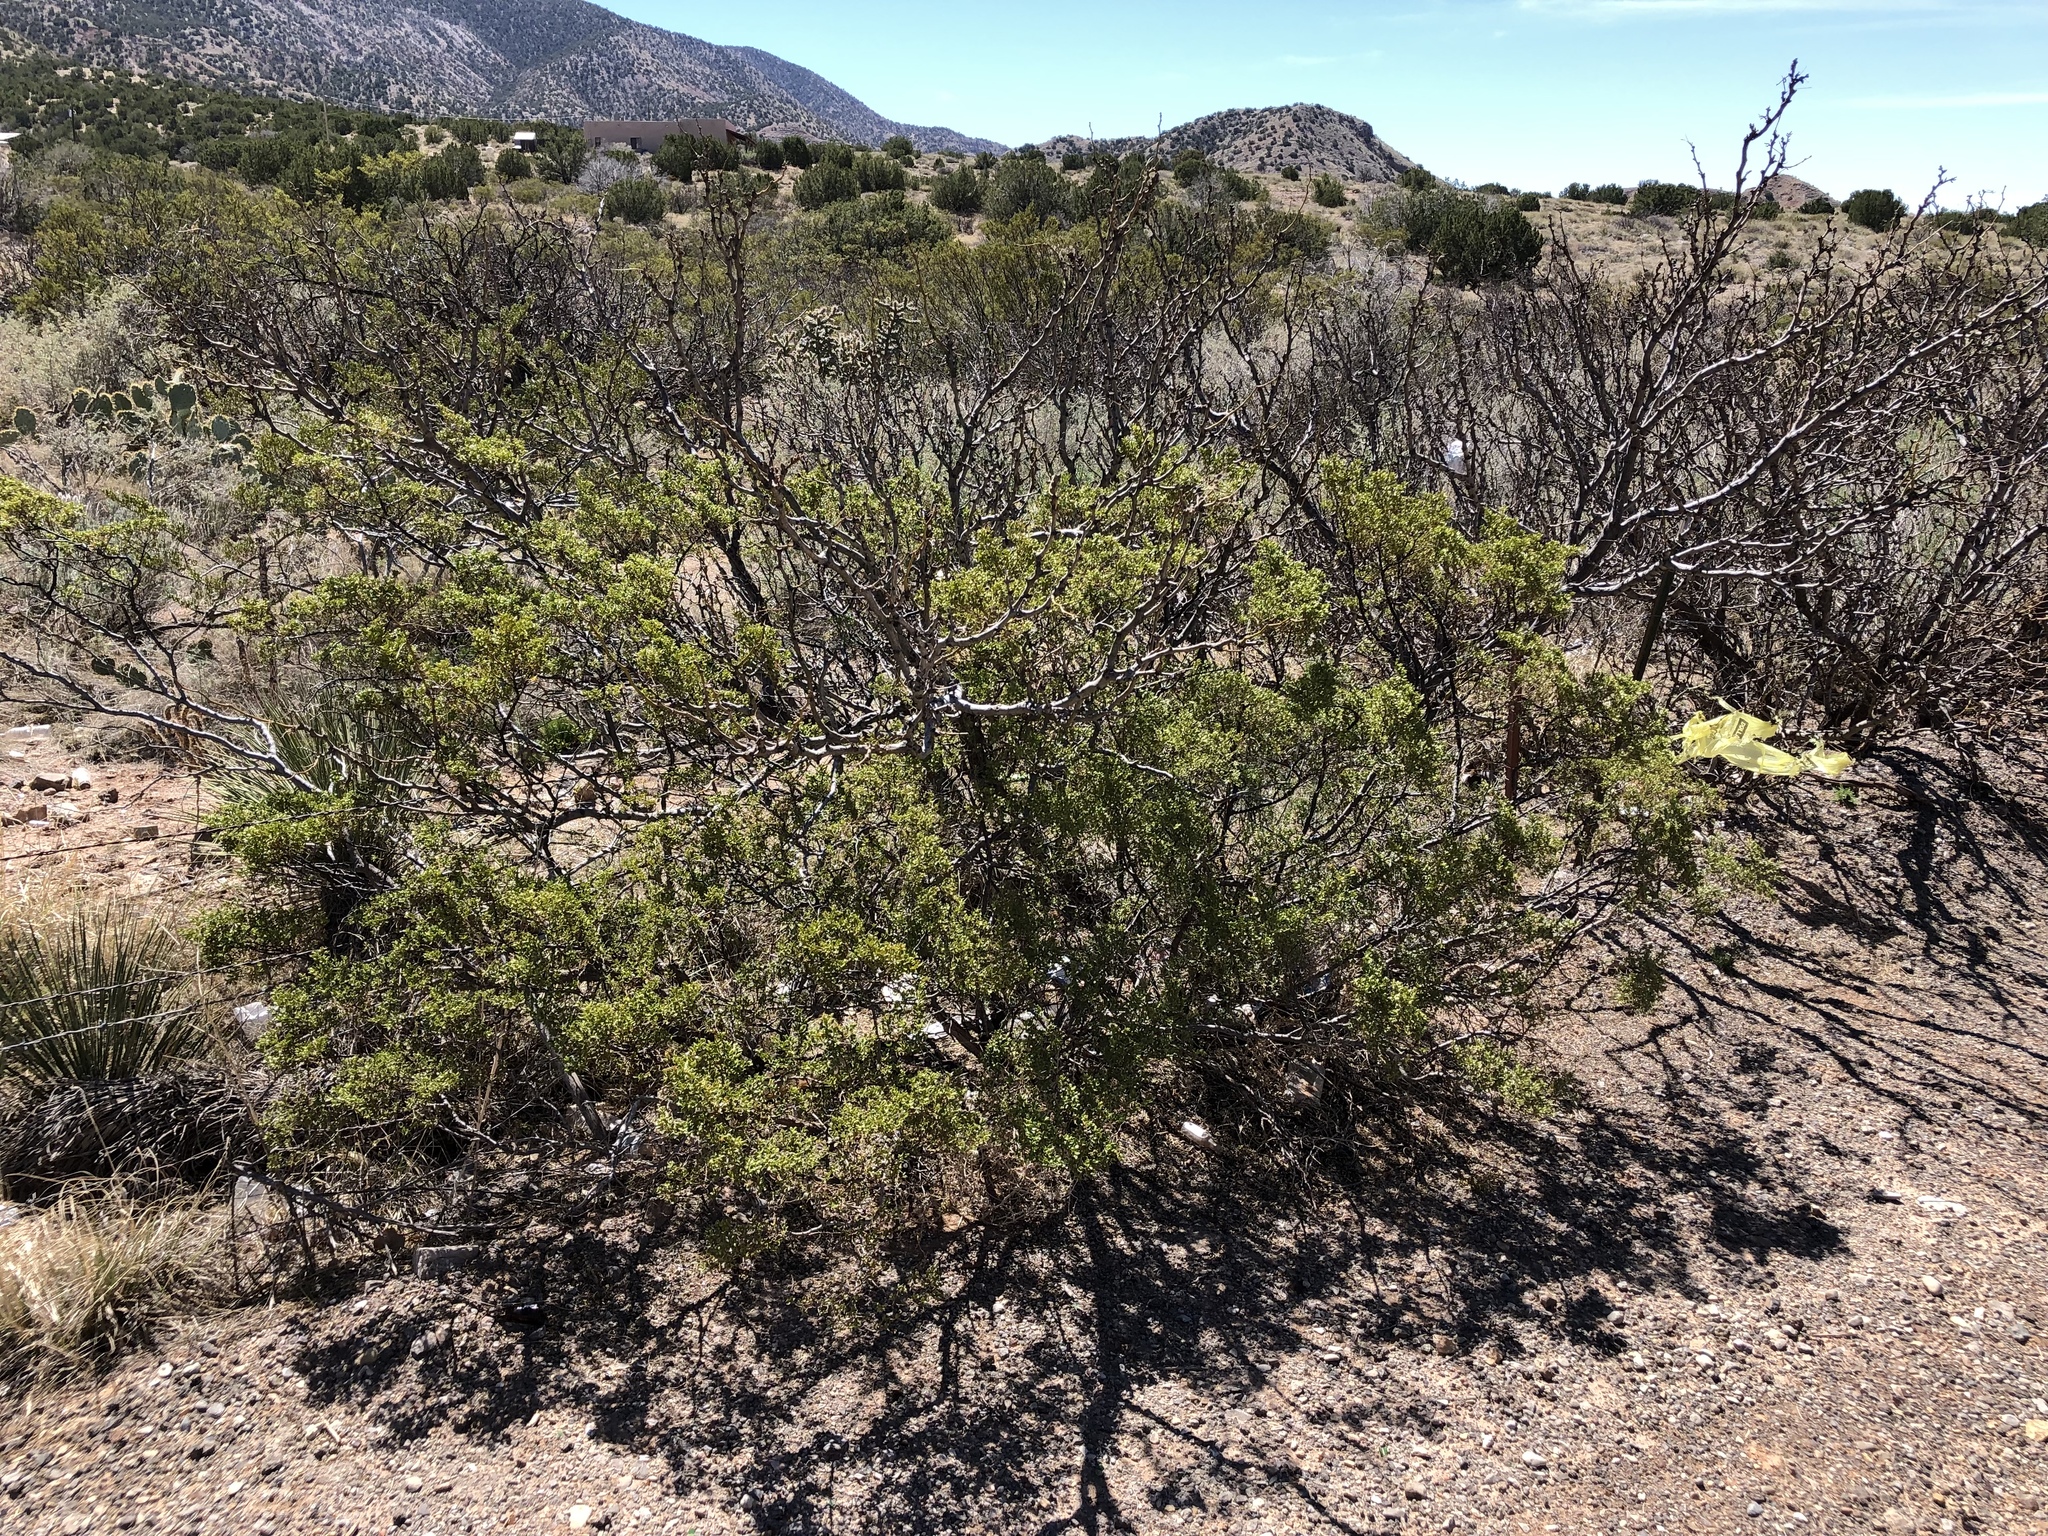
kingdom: Plantae
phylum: Tracheophyta
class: Magnoliopsida
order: Zygophyllales
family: Zygophyllaceae
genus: Larrea
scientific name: Larrea tridentata
